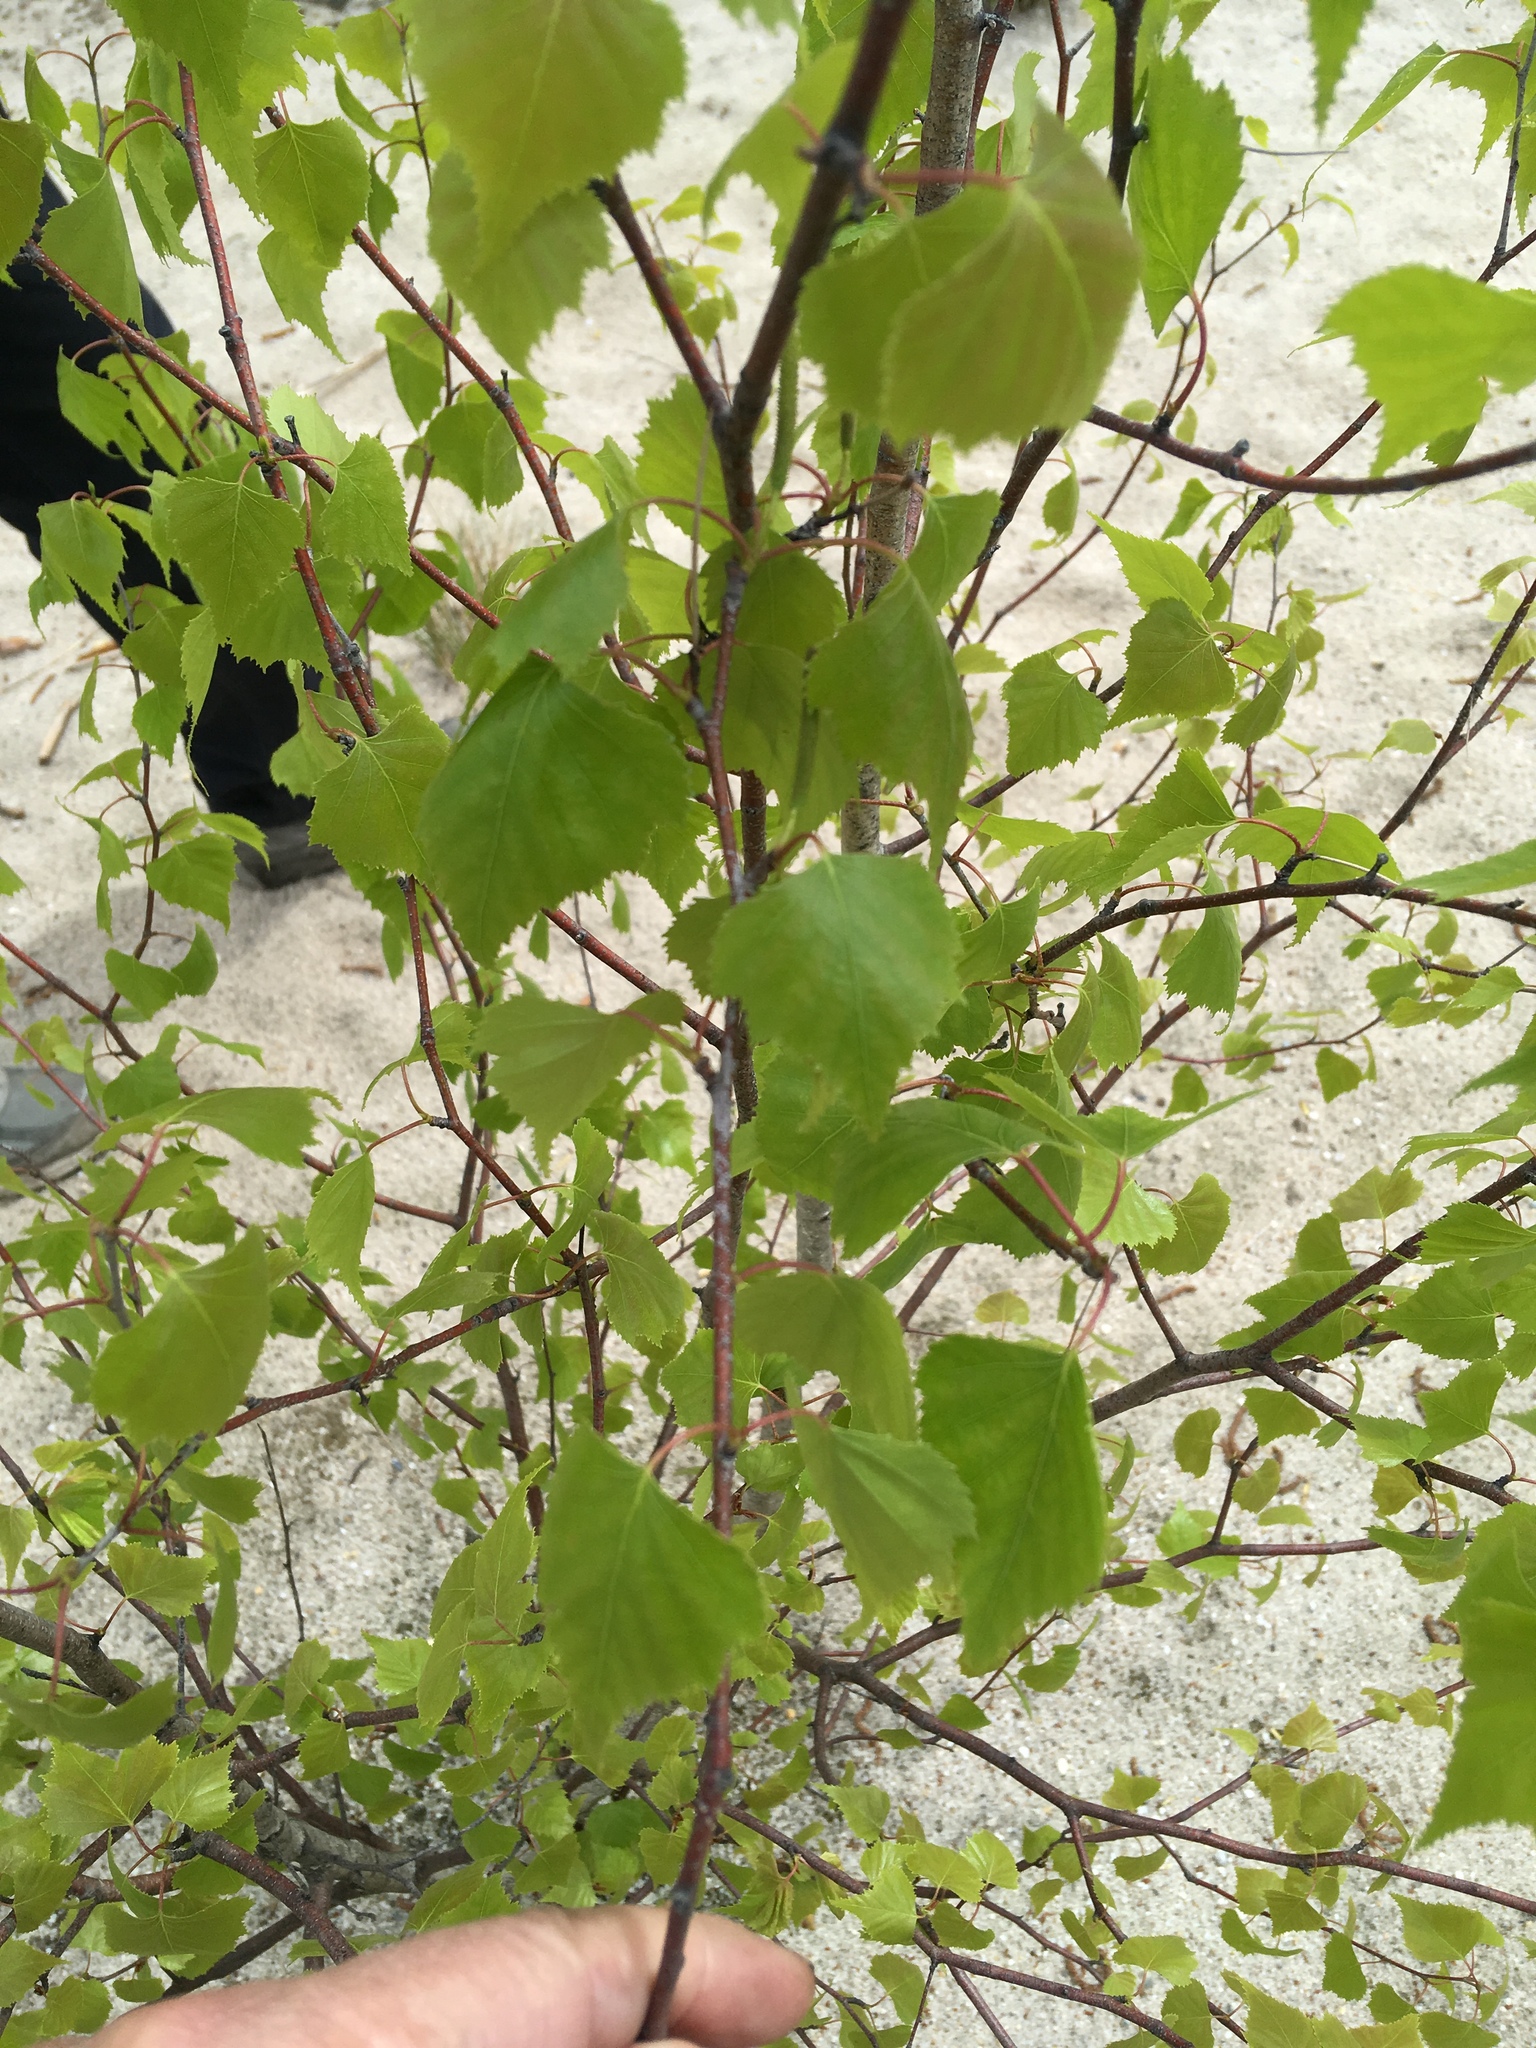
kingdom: Plantae
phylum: Tracheophyta
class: Magnoliopsida
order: Fagales
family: Betulaceae
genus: Betula
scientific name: Betula populifolia
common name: Fire birch
